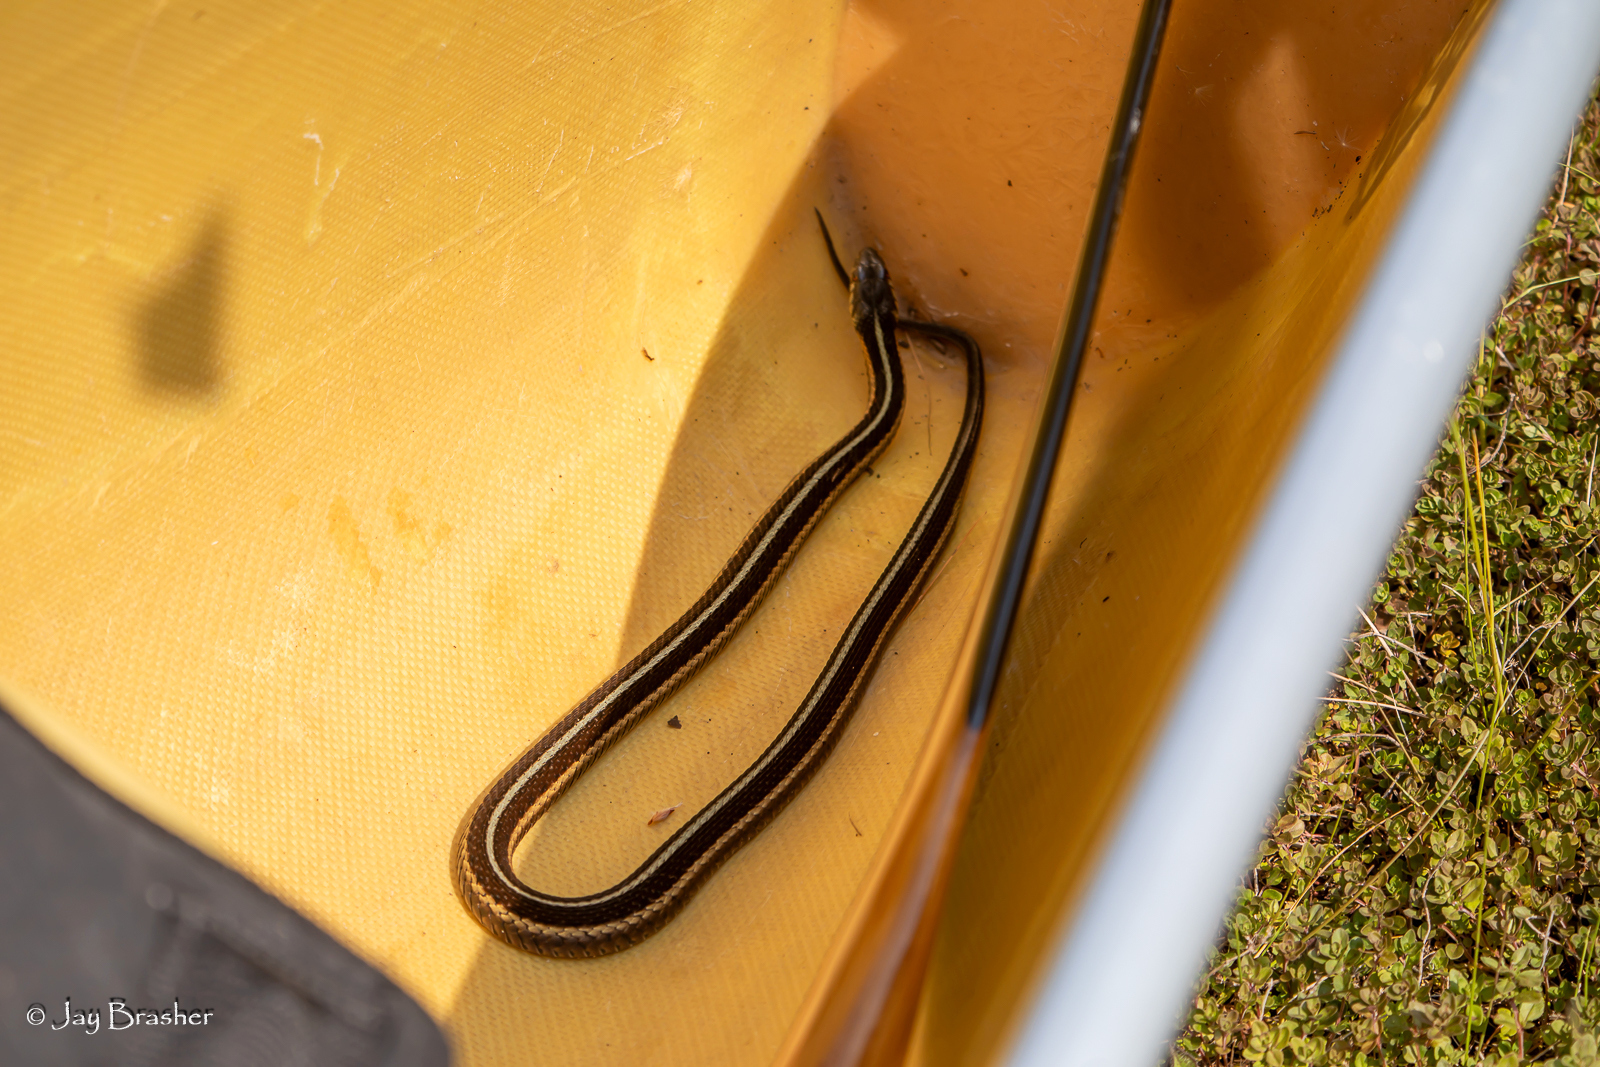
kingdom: Animalia
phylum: Chordata
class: Squamata
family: Colubridae
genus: Thamnophis
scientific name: Thamnophis sirtalis
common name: Common garter snake
